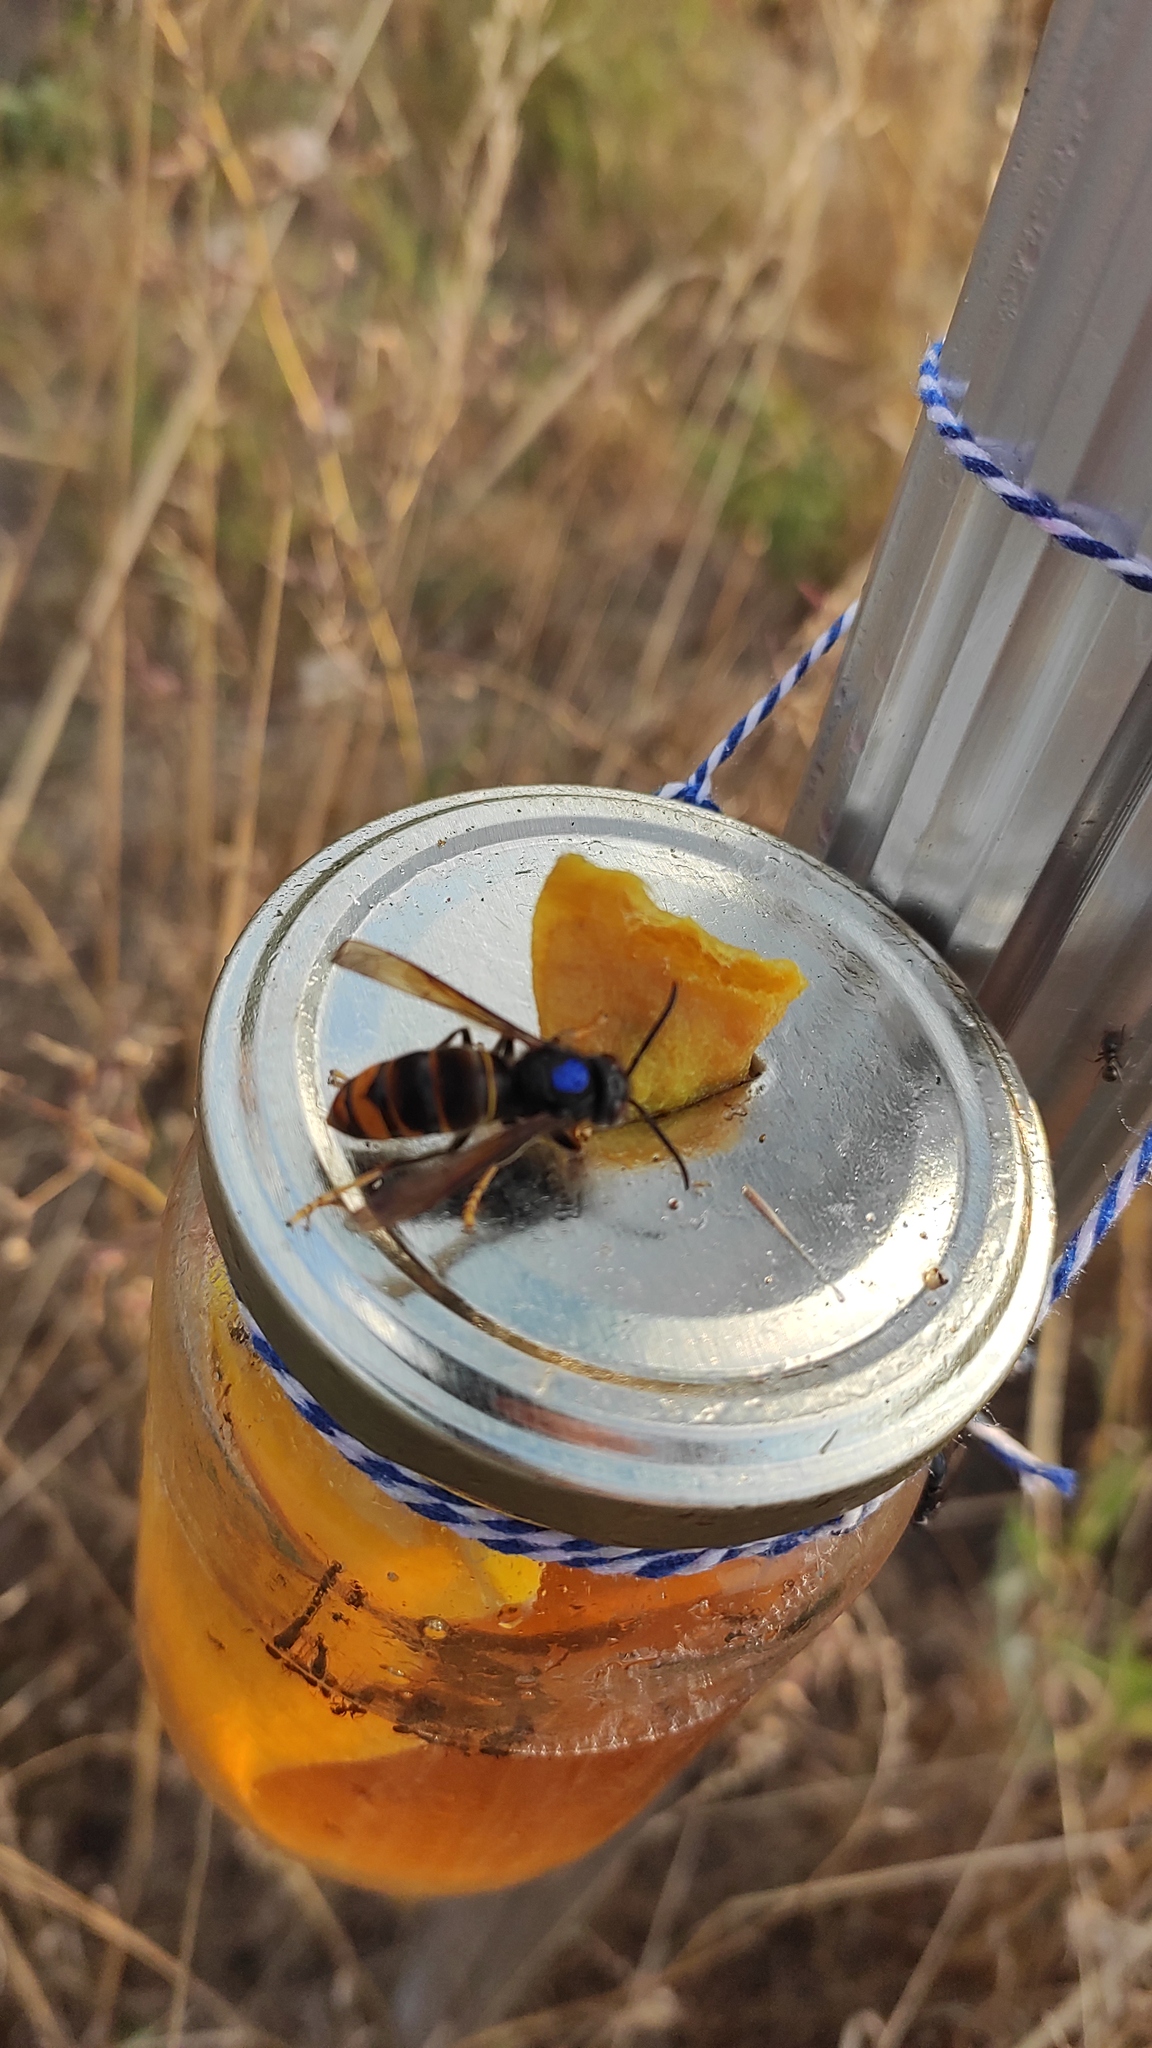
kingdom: Animalia
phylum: Arthropoda
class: Insecta
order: Hymenoptera
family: Vespidae
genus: Vespa
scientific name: Vespa velutina
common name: Asian hornet
